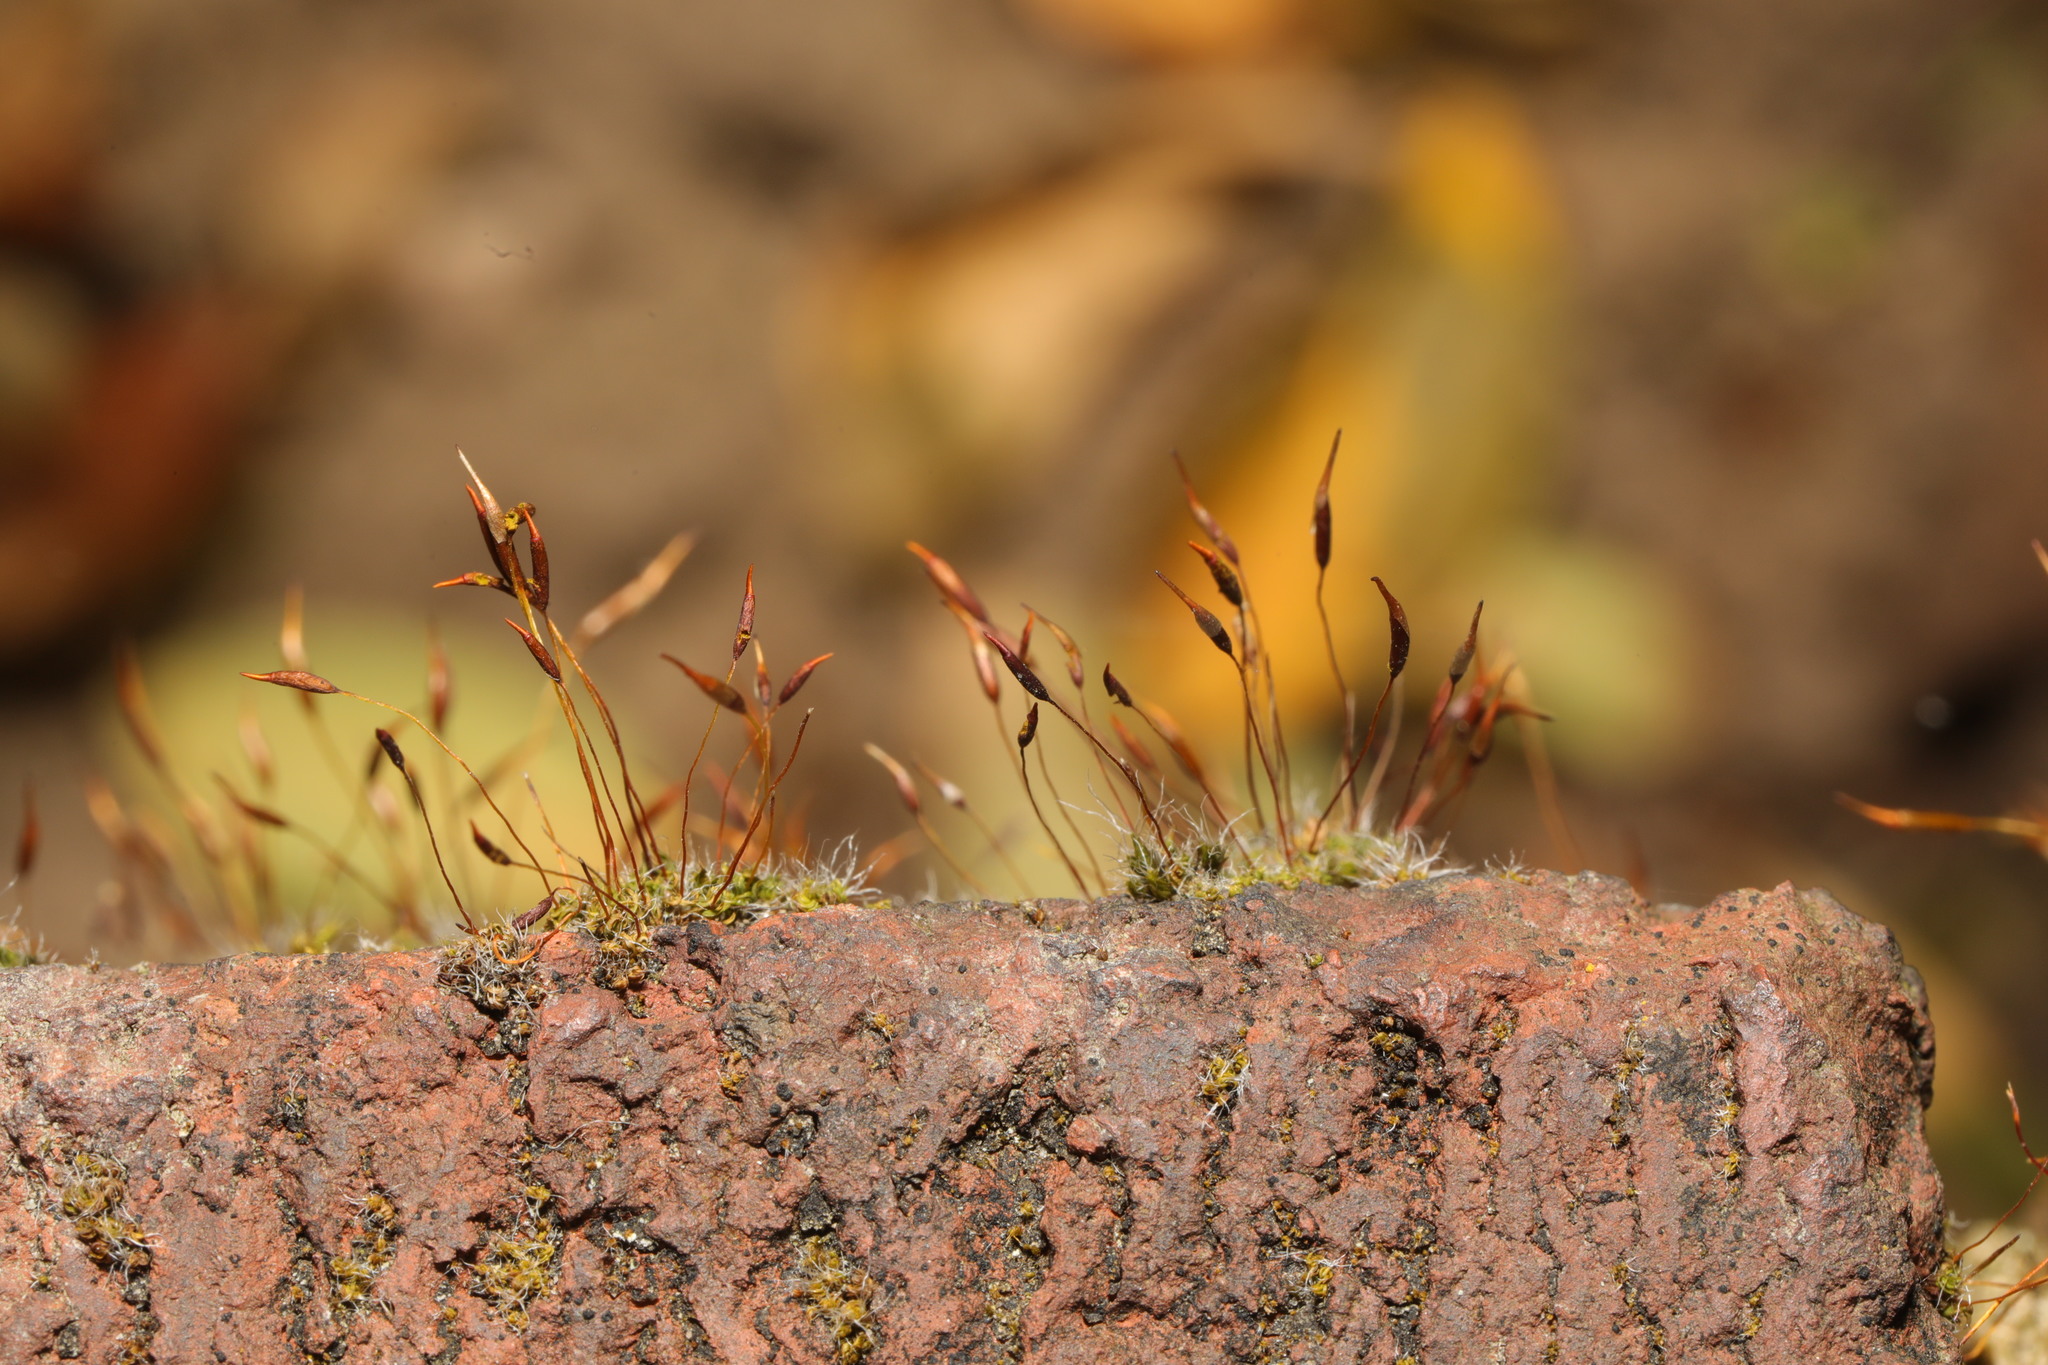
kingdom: Plantae
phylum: Bryophyta
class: Bryopsida
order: Pottiales
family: Pottiaceae
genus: Tortula
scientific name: Tortula muralis
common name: Wall screw-moss
